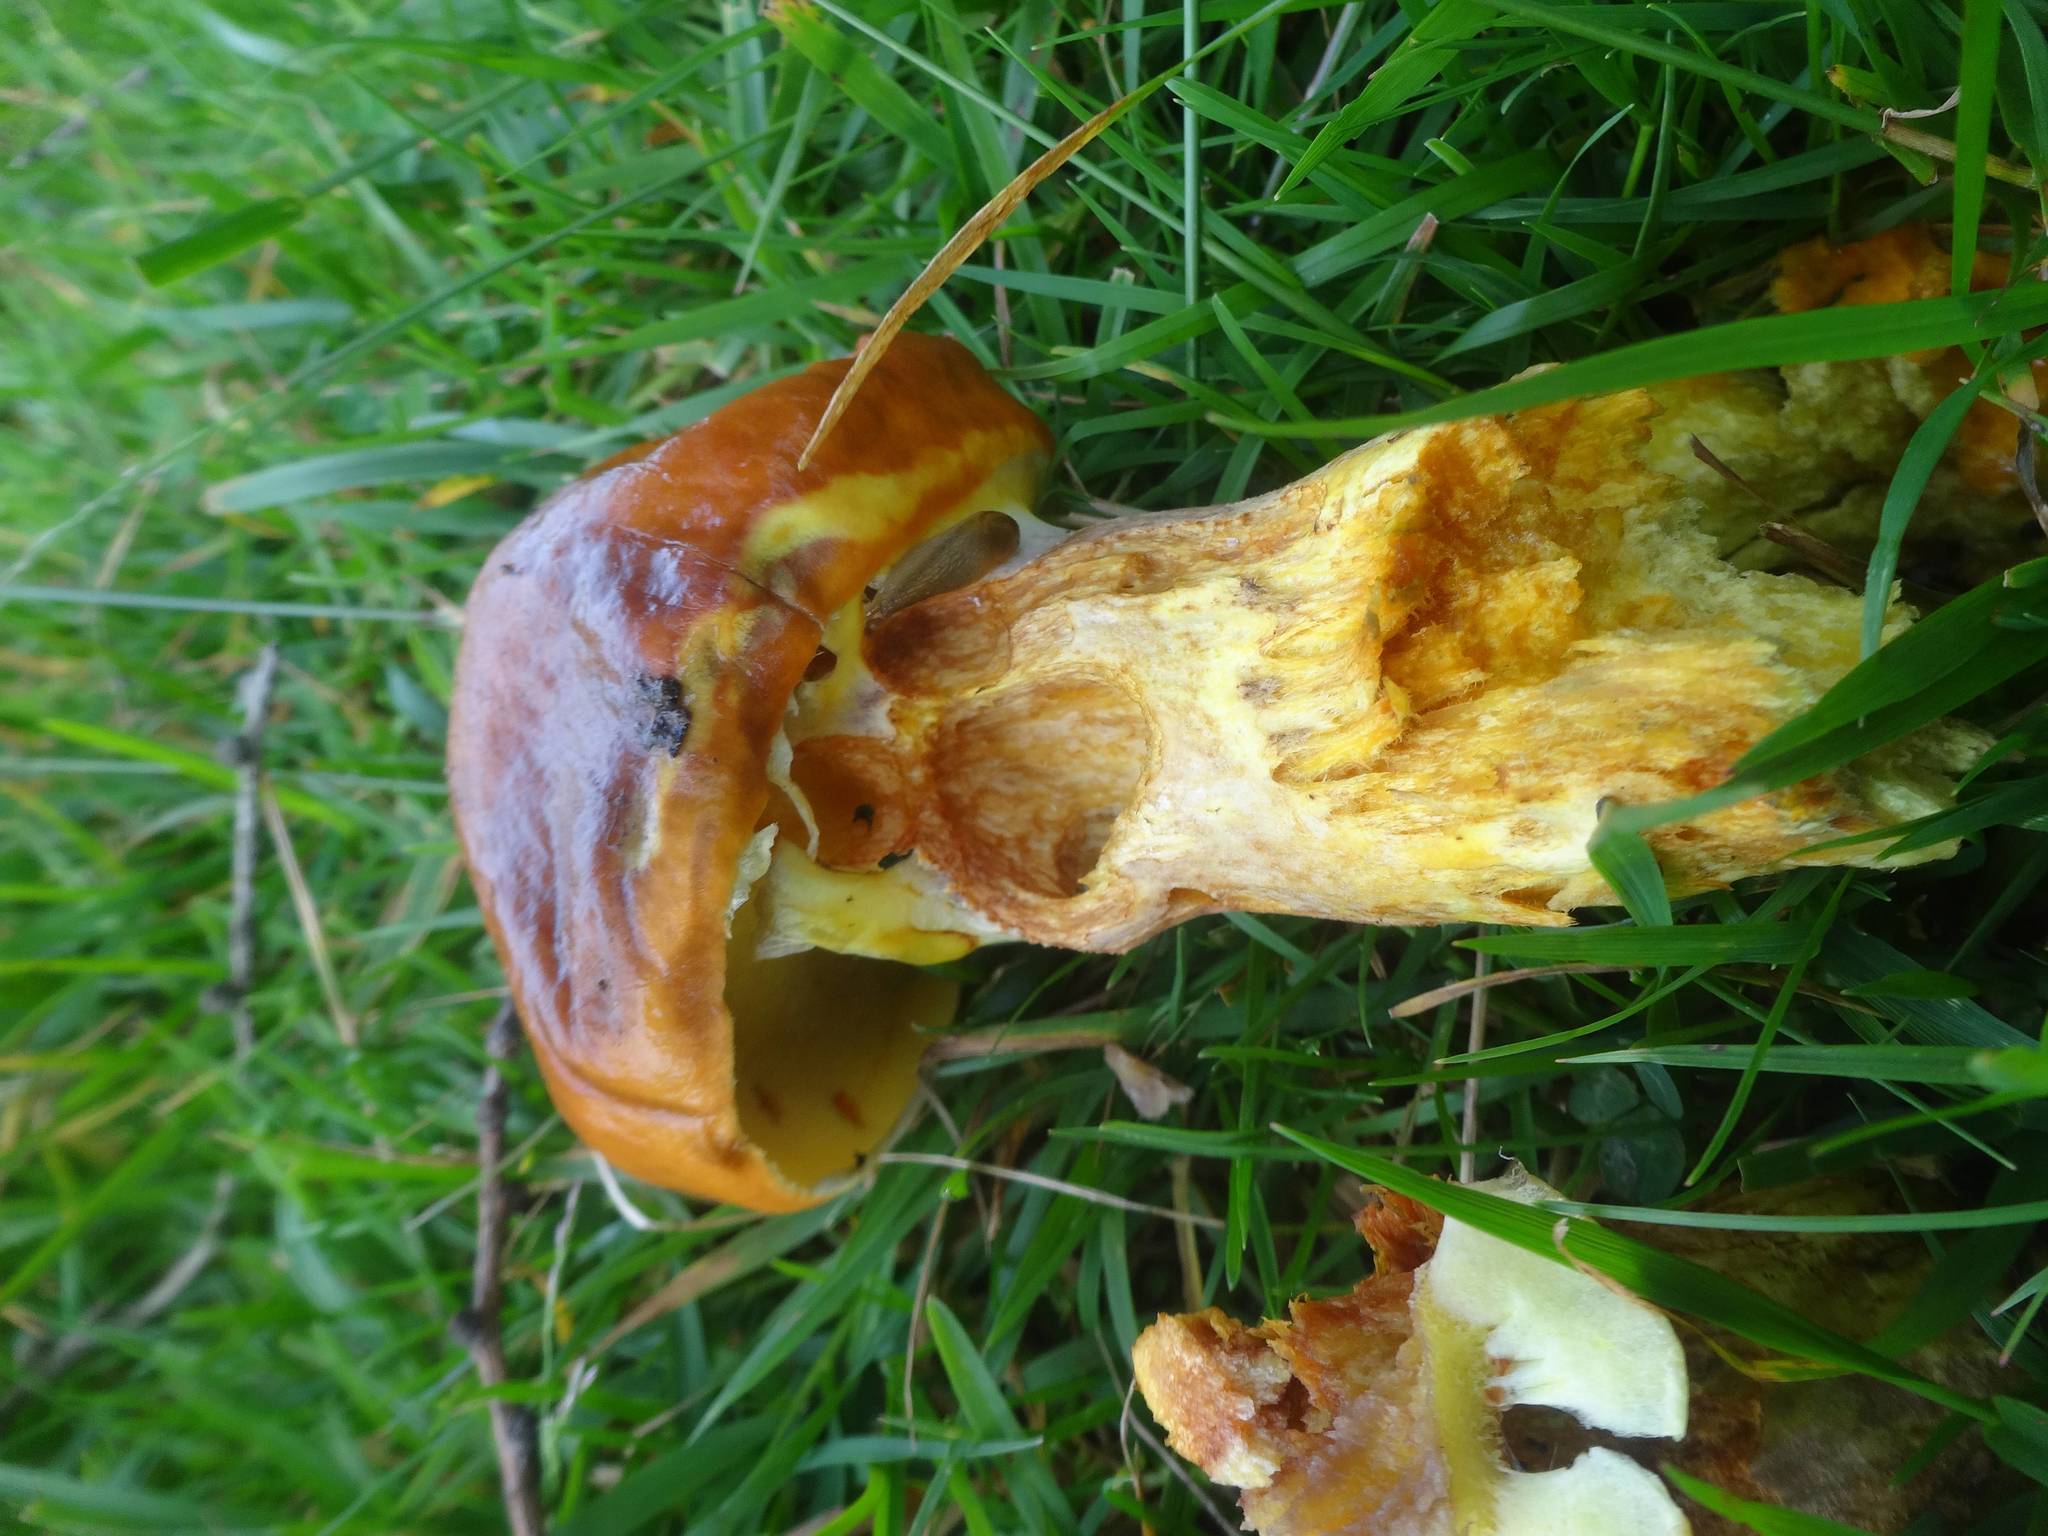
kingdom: Fungi
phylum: Basidiomycota
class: Agaricomycetes
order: Boletales
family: Suillaceae
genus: Suillus
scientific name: Suillus grevillei
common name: Larch bolete
